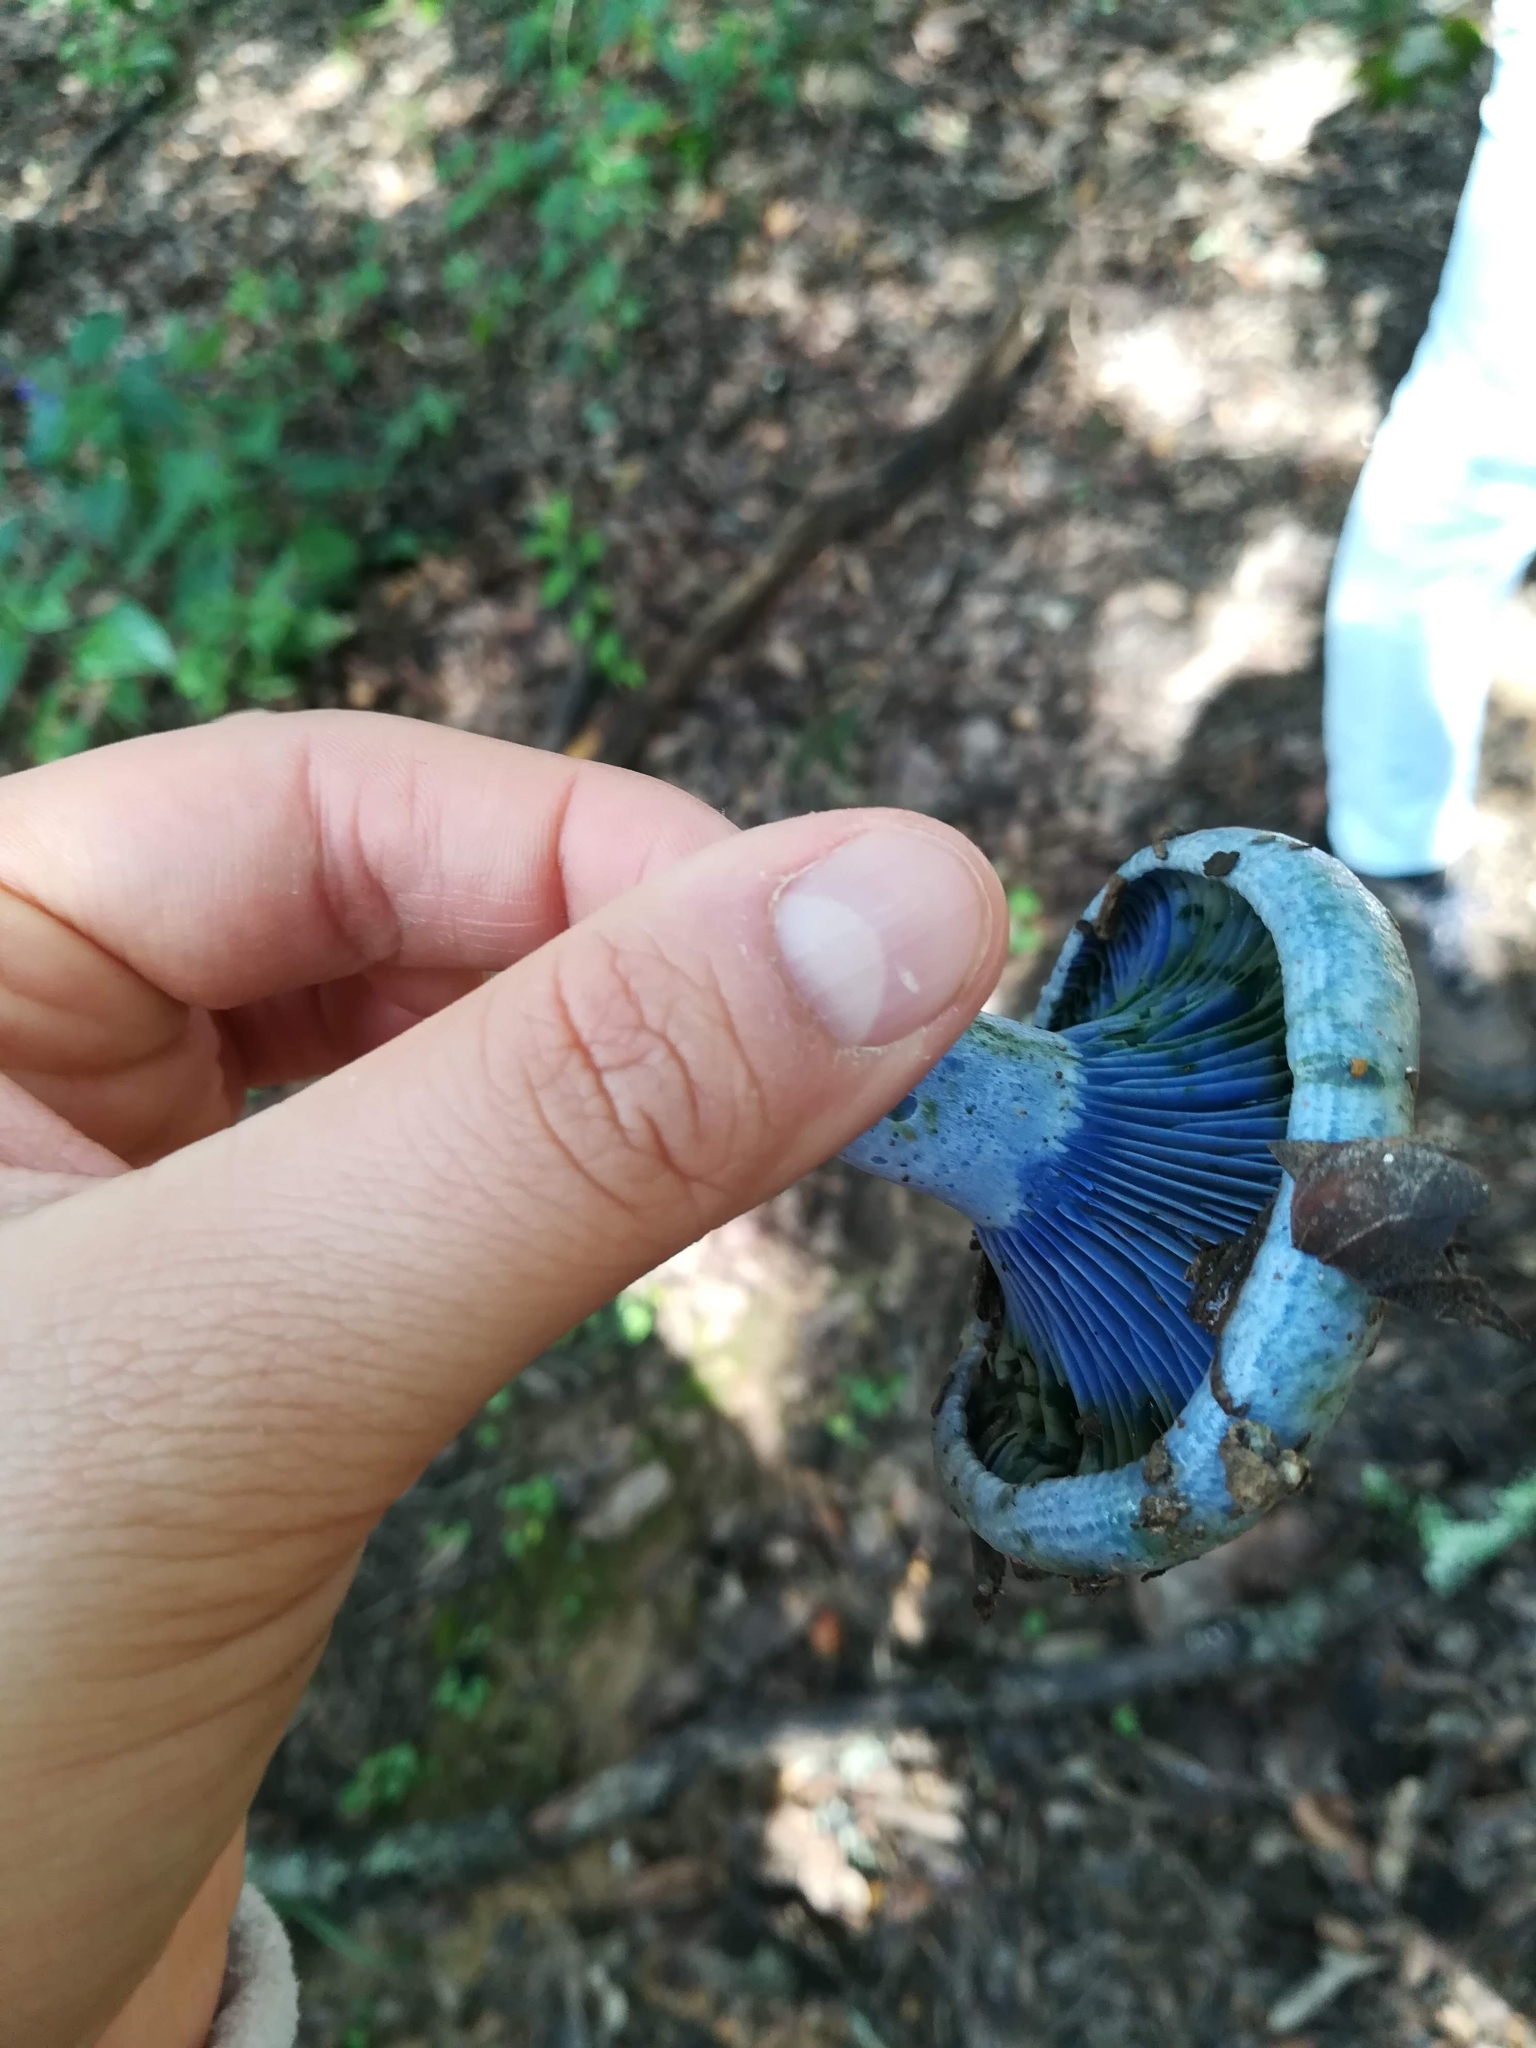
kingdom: Fungi
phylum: Basidiomycota
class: Agaricomycetes
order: Russulales
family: Russulaceae
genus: Lactarius
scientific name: Lactarius indigo
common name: Indigo milk cap
